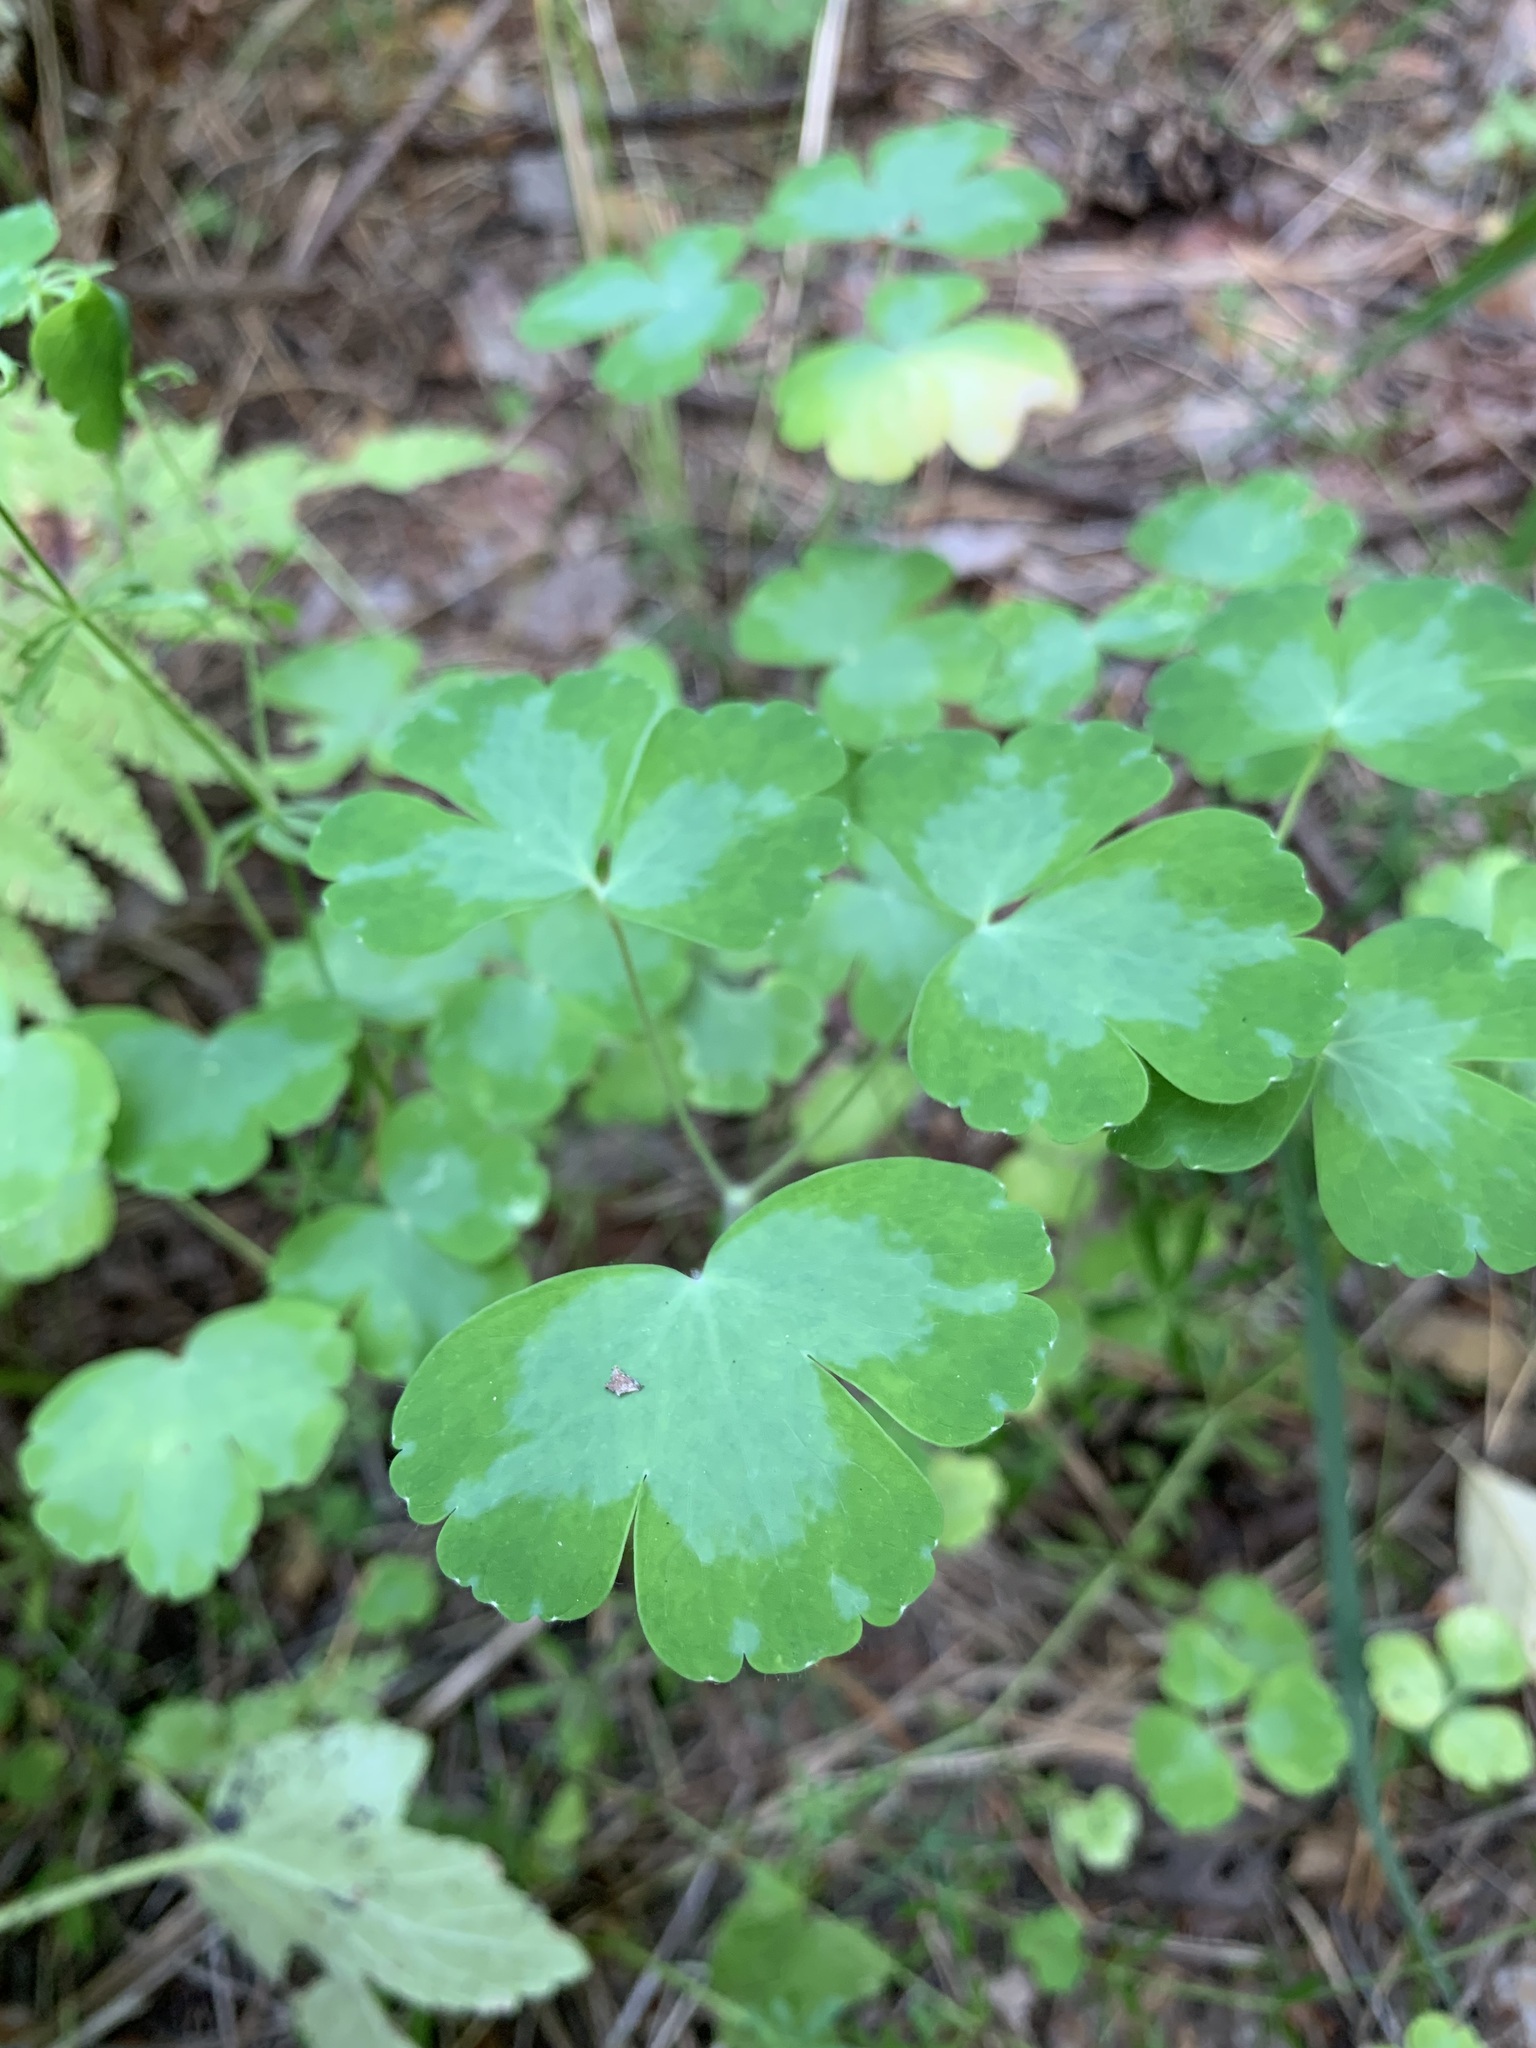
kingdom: Plantae
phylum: Tracheophyta
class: Magnoliopsida
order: Ranunculales
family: Ranunculaceae
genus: Aquilegia
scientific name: Aquilegia vulgaris
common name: Columbine
